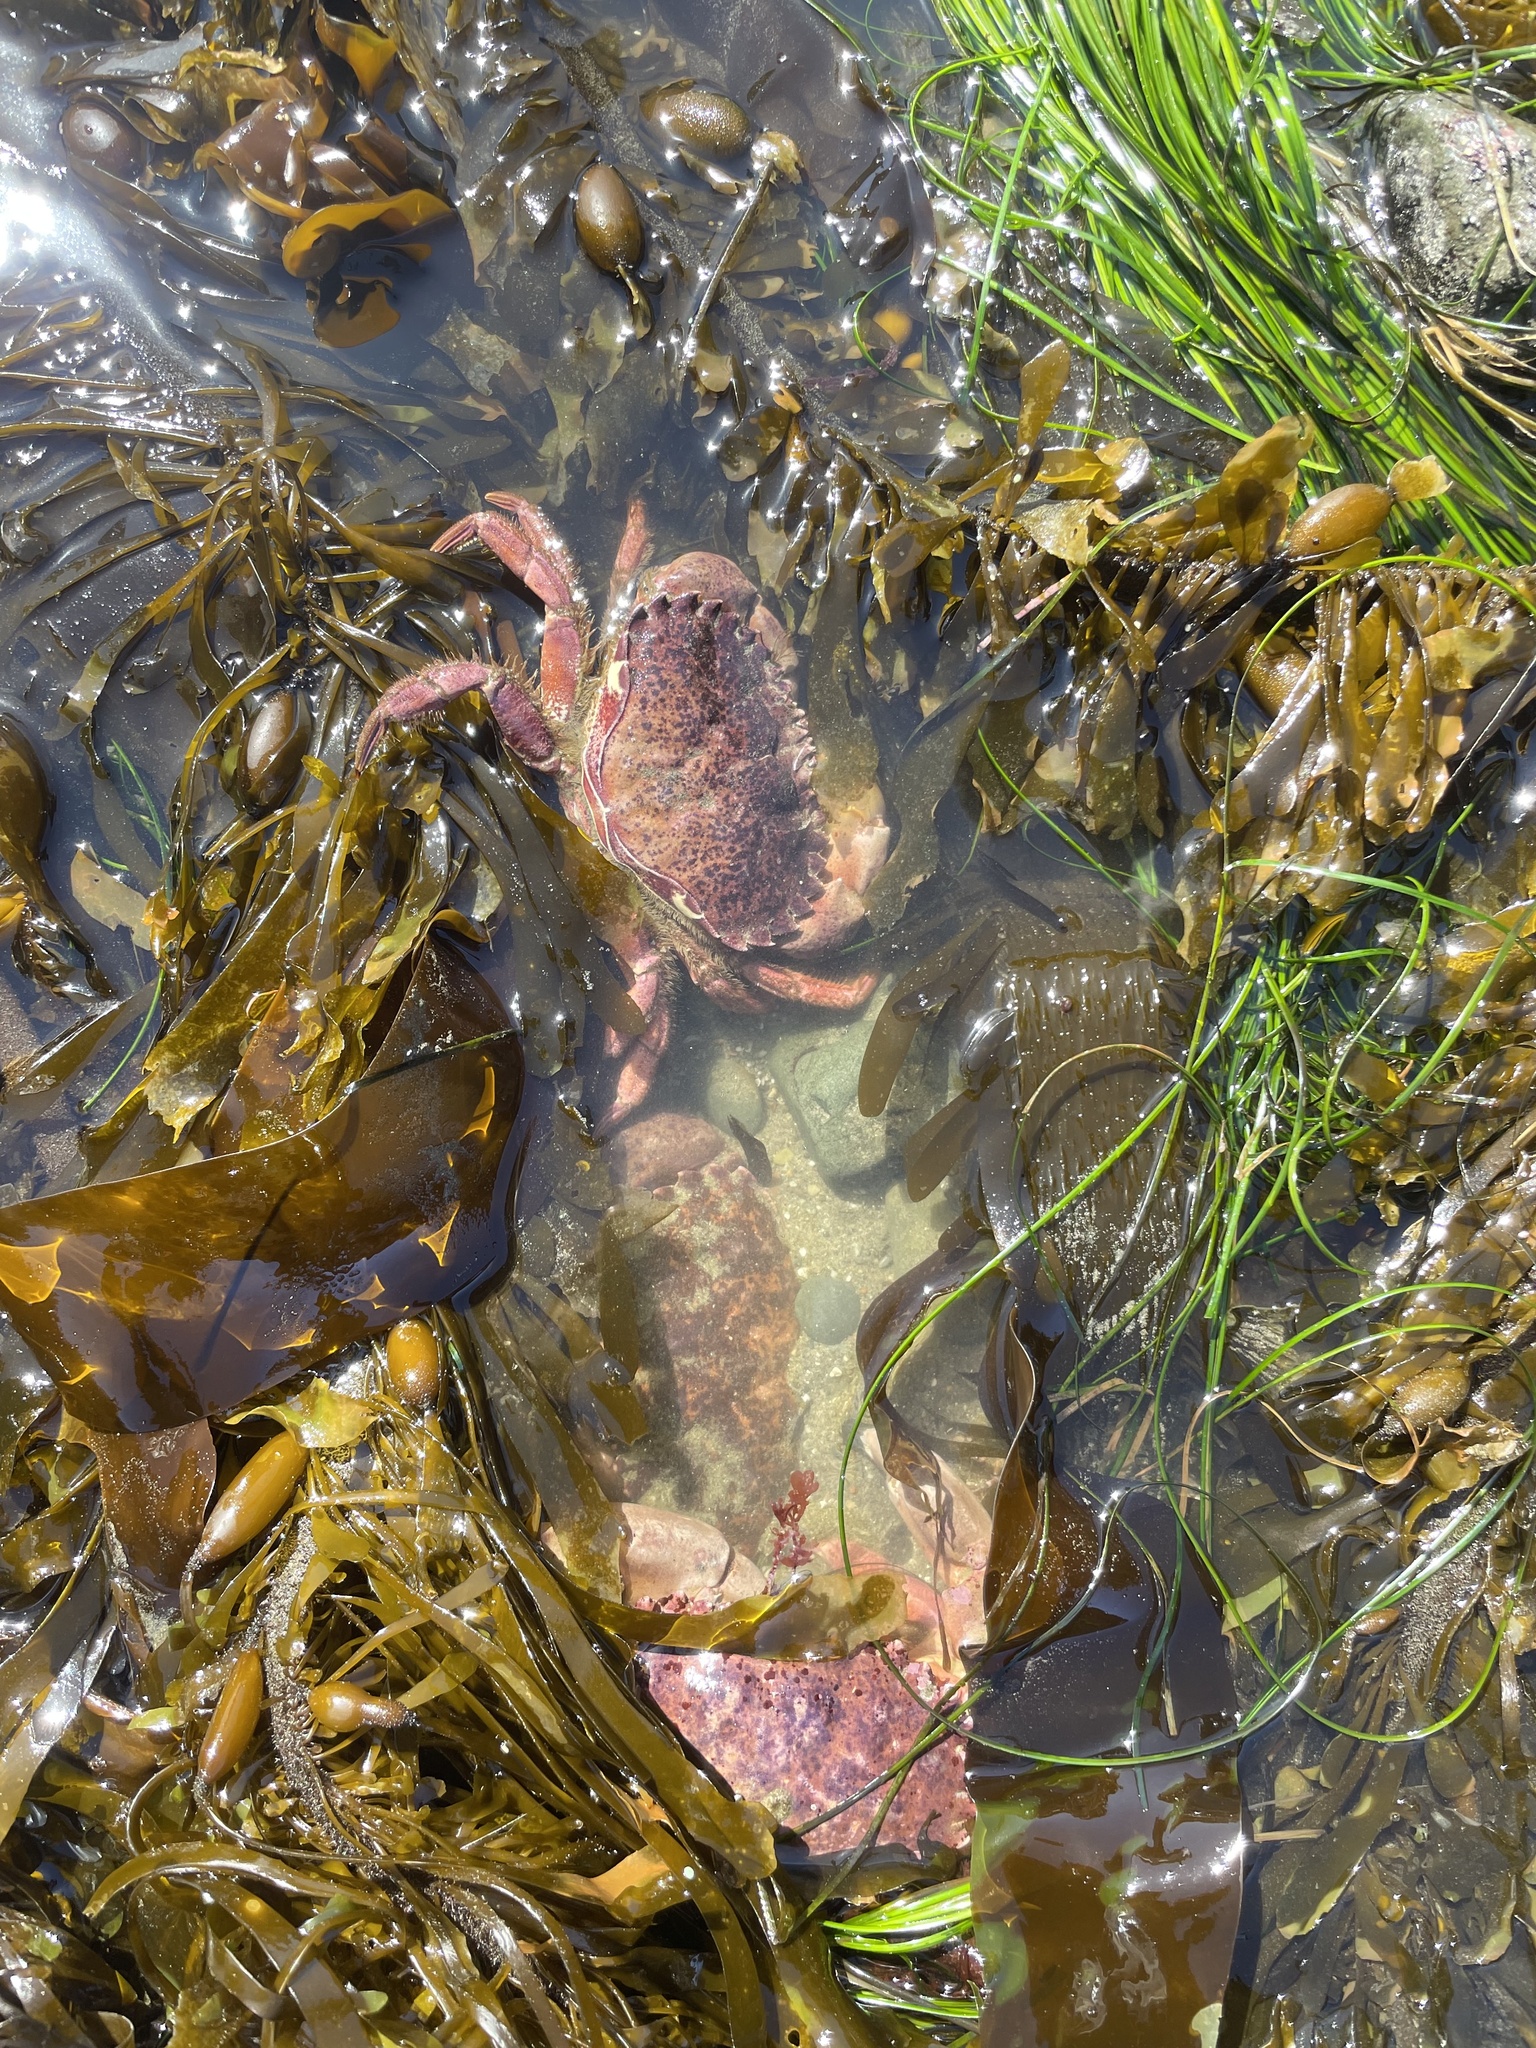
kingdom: Animalia
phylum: Arthropoda
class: Malacostraca
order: Decapoda
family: Cancridae
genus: Romaleon
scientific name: Romaleon antennarium
